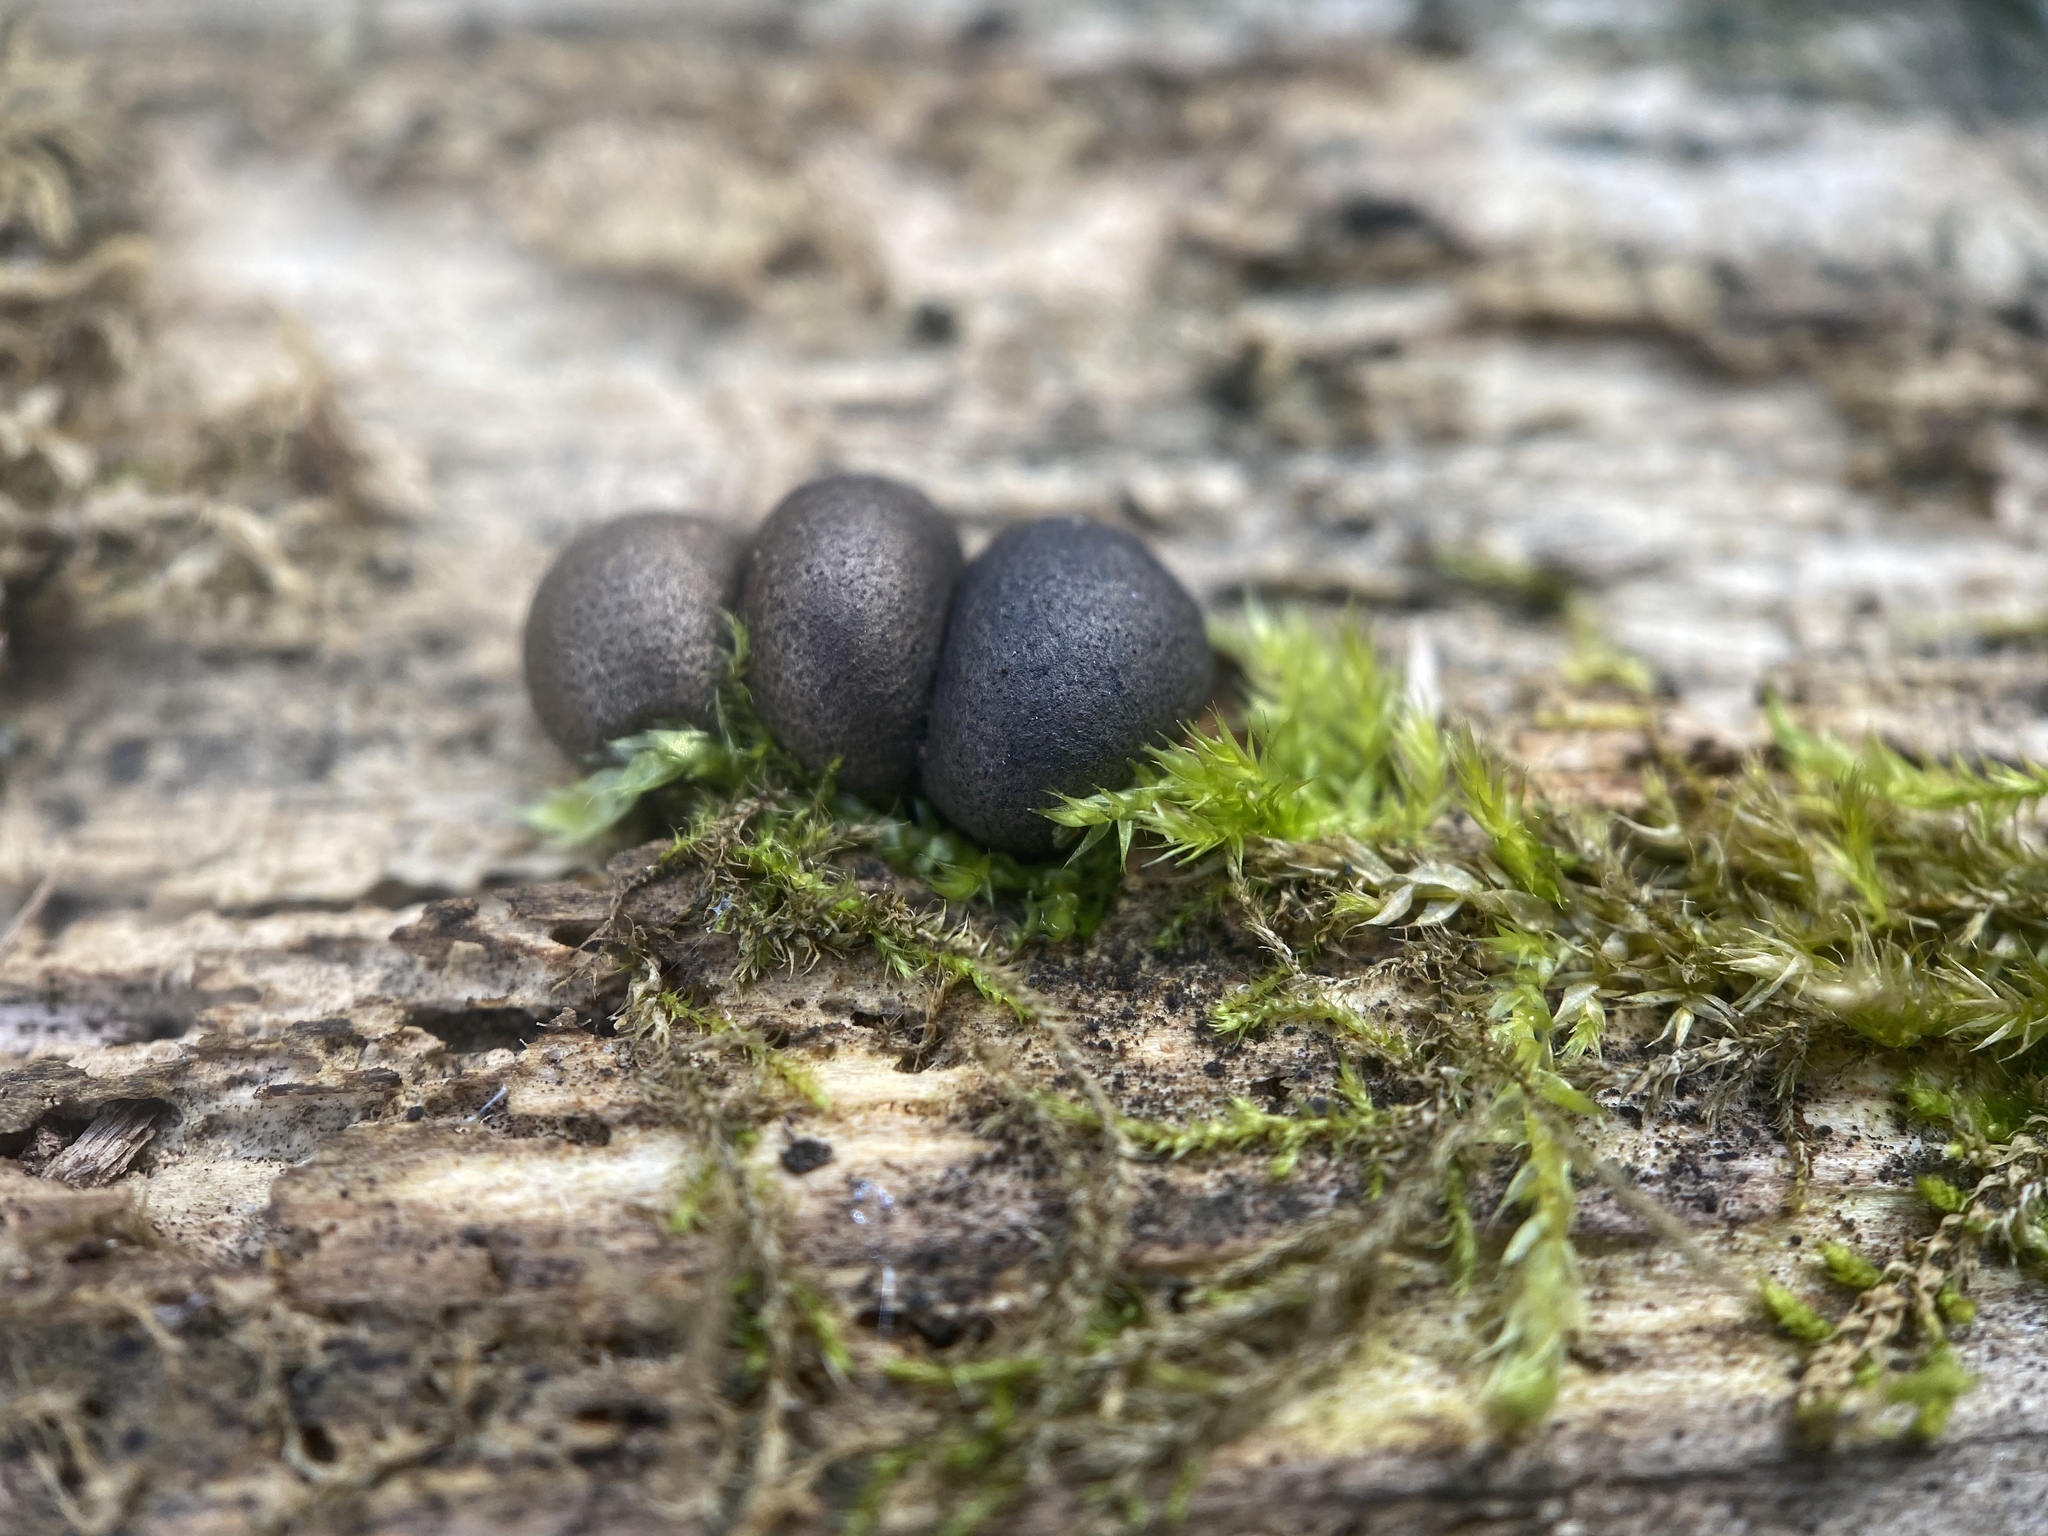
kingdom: Protozoa
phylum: Mycetozoa
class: Myxomycetes
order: Cribrariales
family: Tubiferaceae
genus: Lycogala
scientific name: Lycogala epidendrum
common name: Wolf's milk
